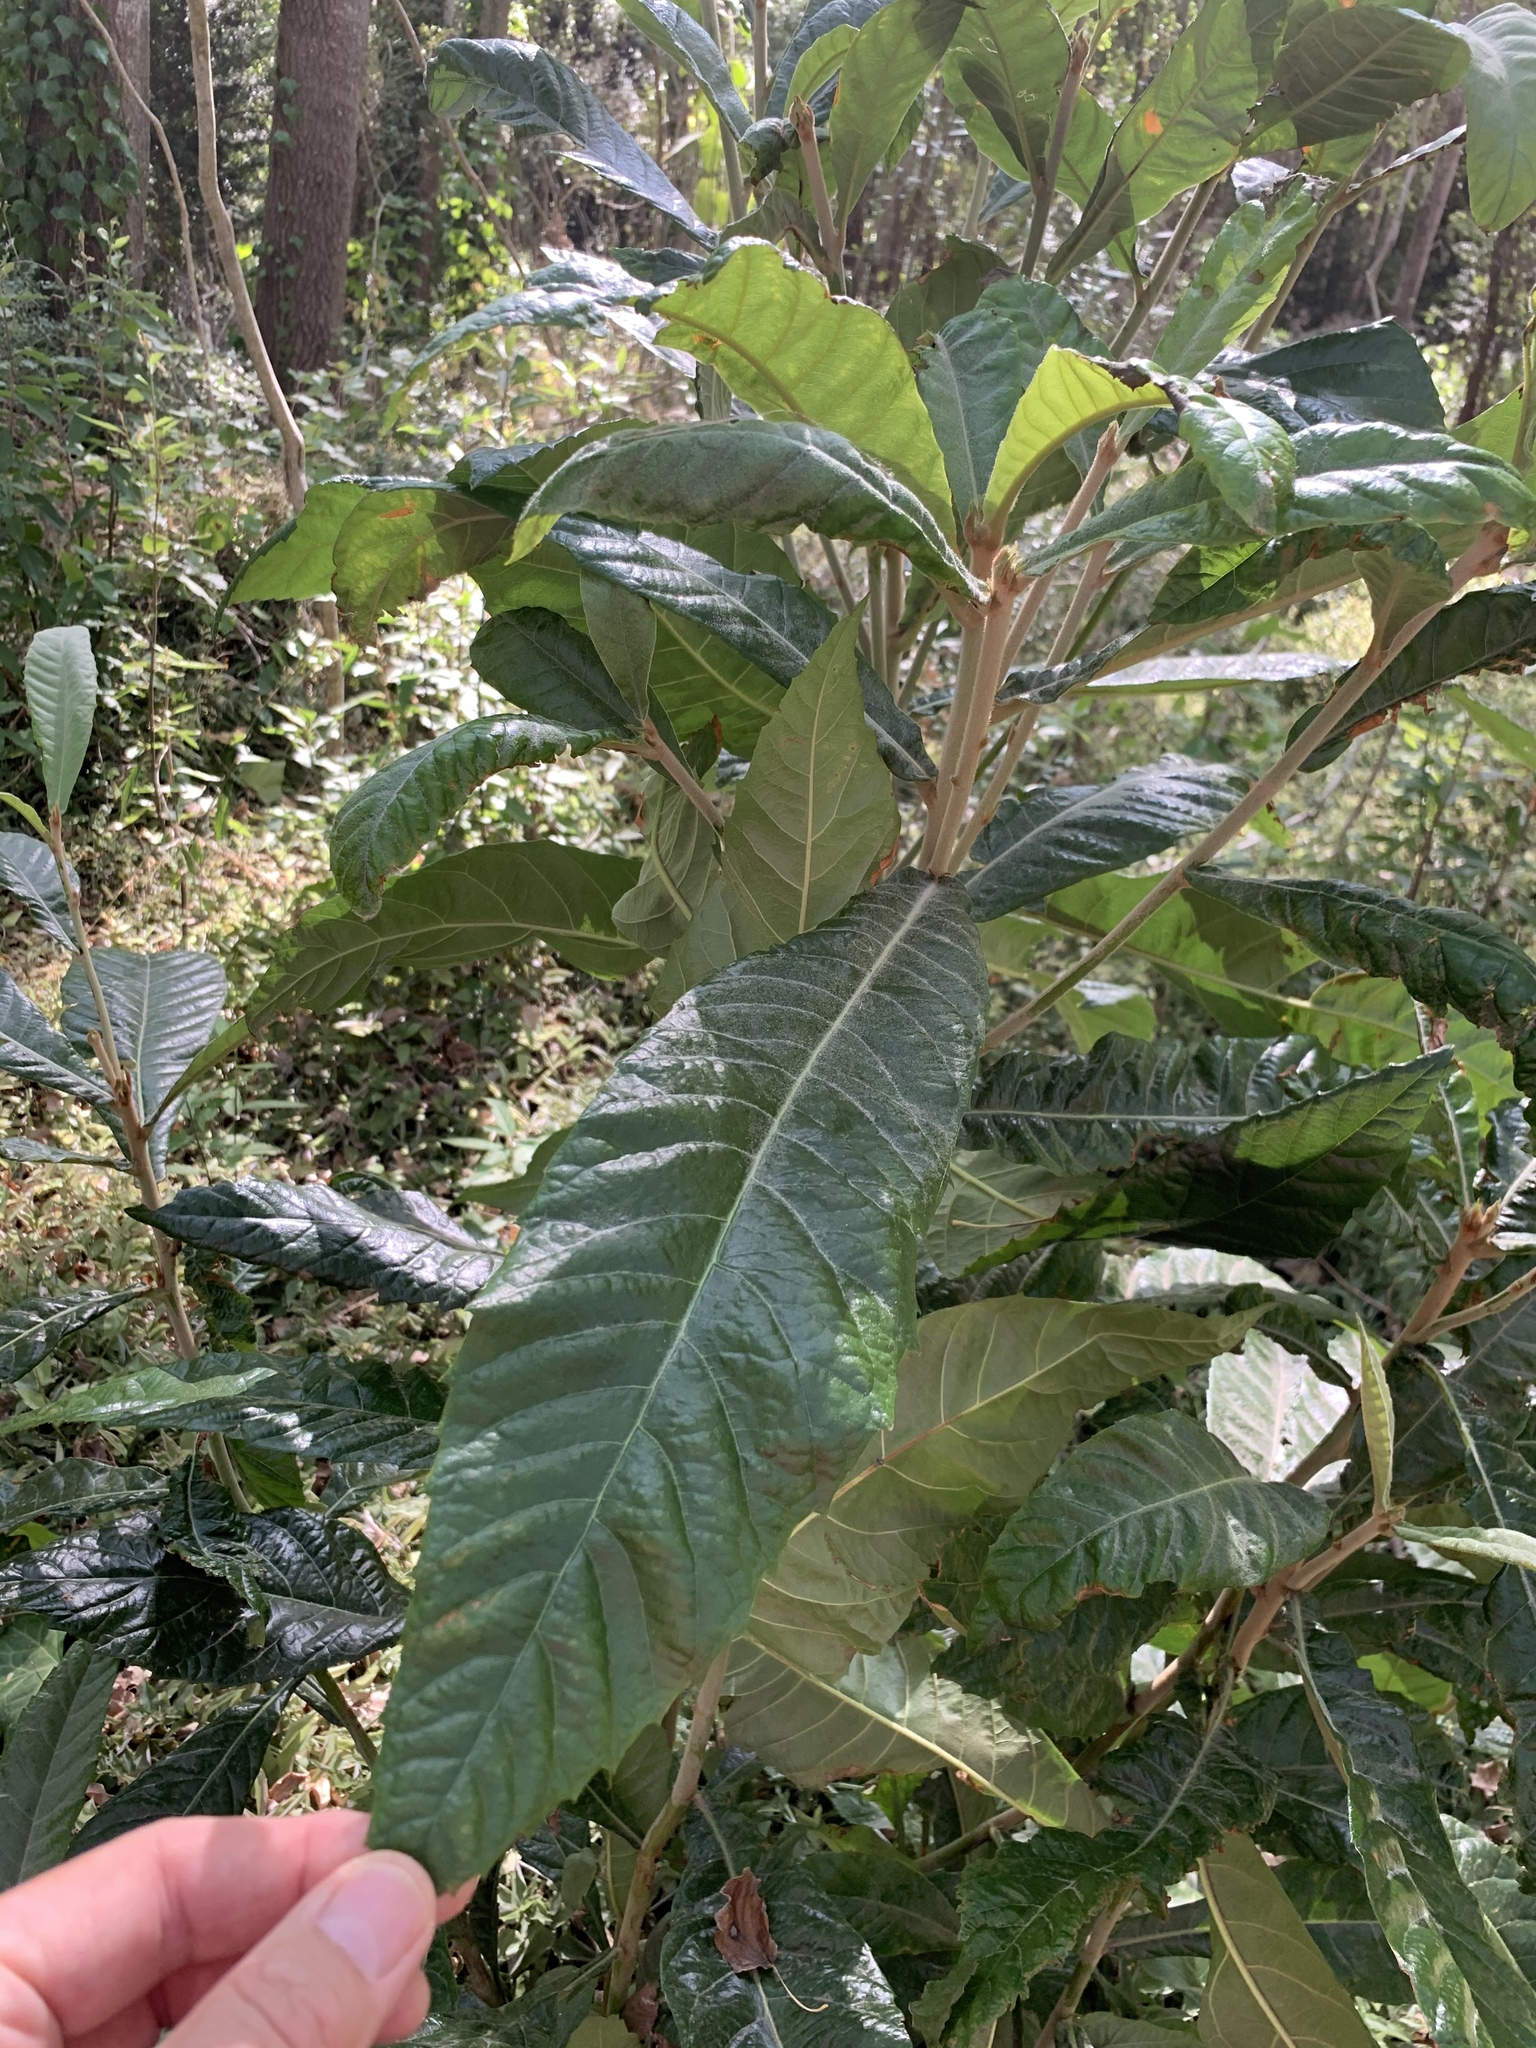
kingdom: Plantae
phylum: Tracheophyta
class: Magnoliopsida
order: Rosales
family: Rosaceae
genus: Rhaphiolepis
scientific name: Rhaphiolepis bibas
